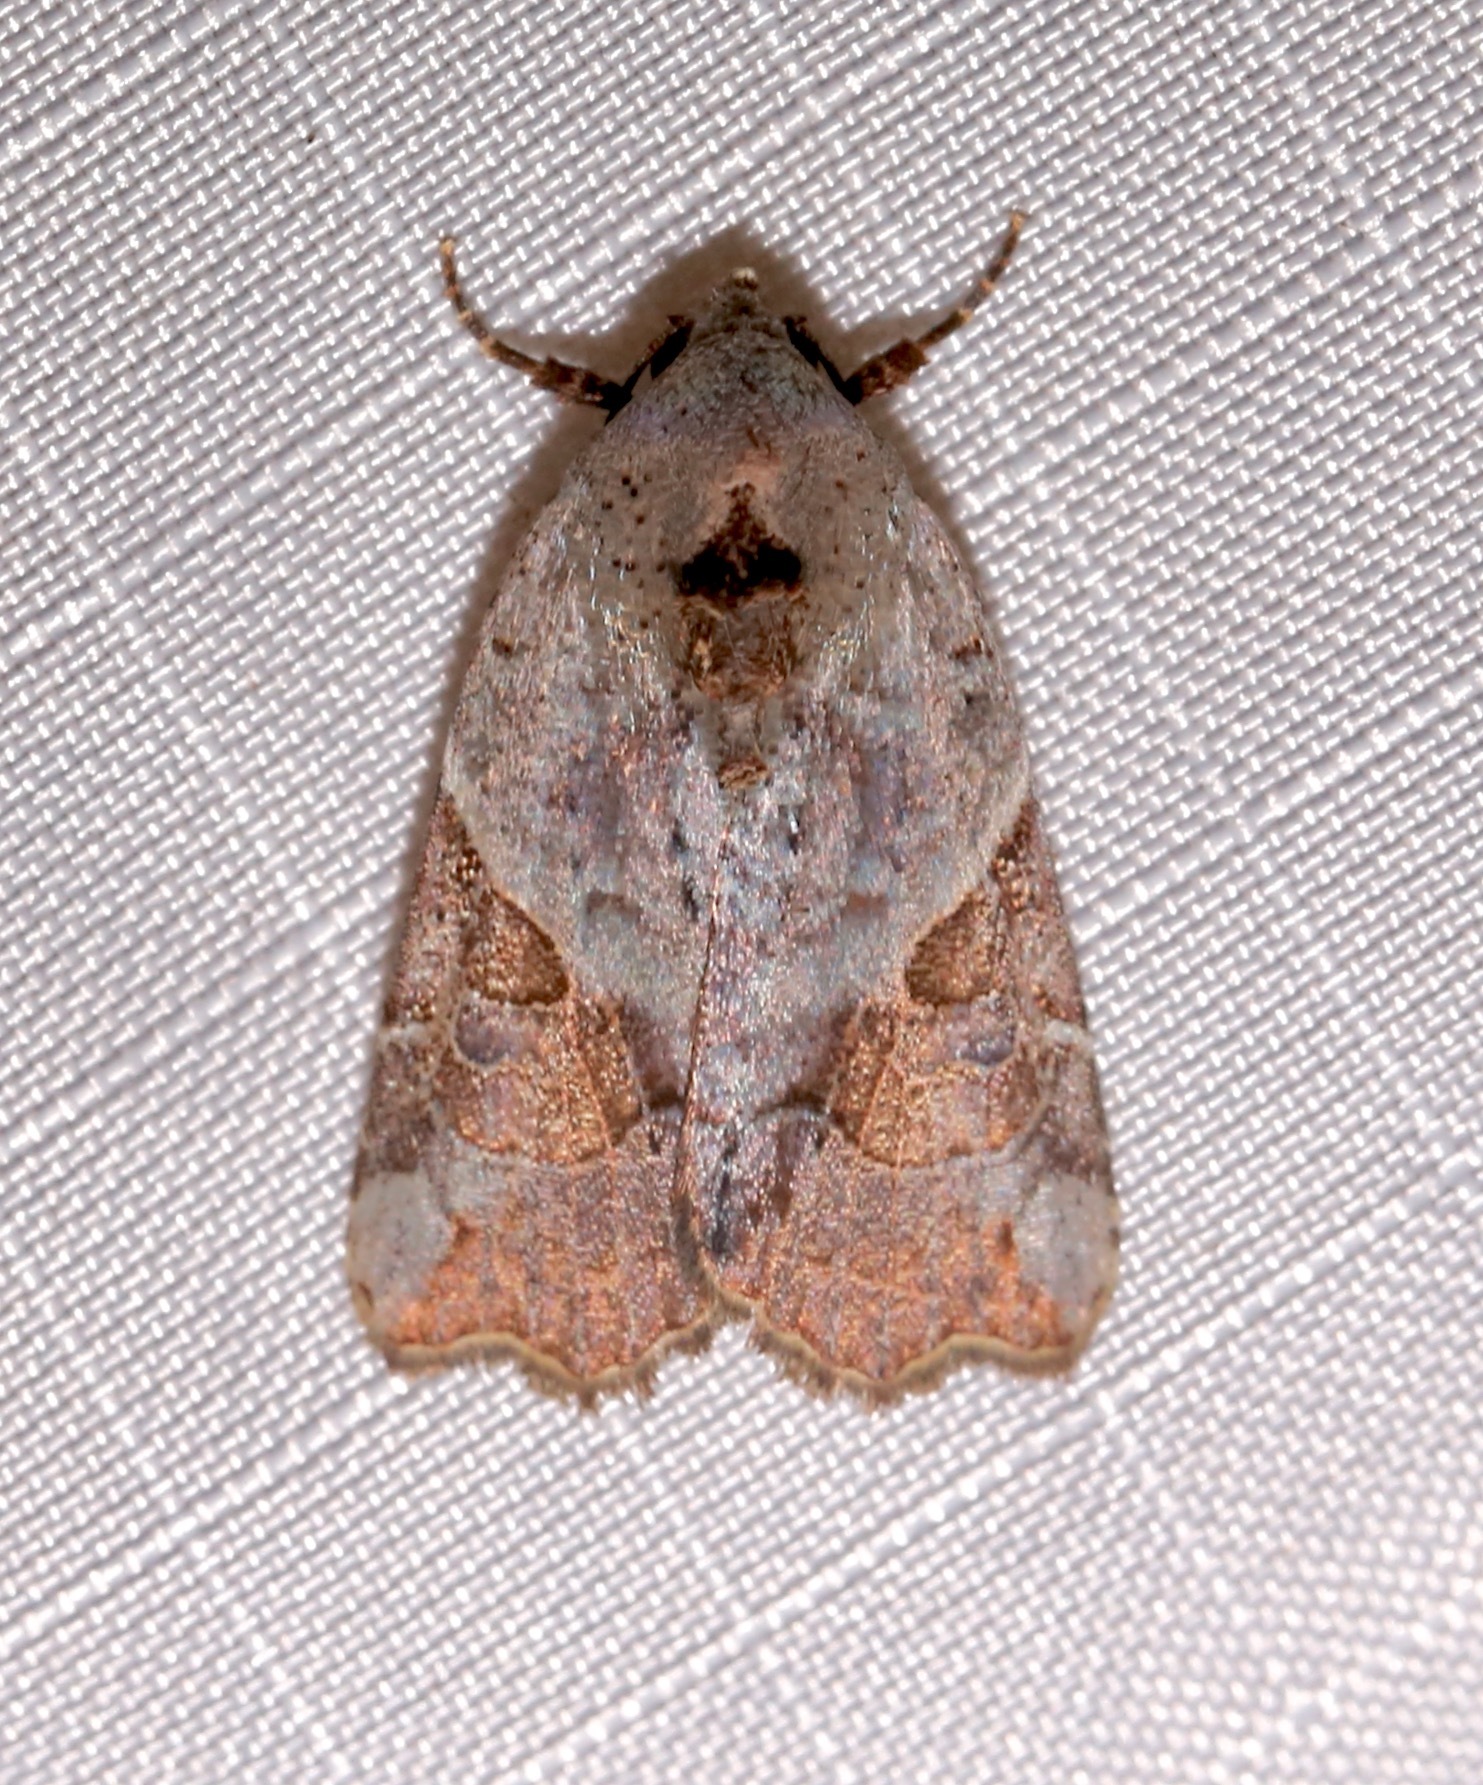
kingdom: Animalia
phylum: Arthropoda
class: Insecta
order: Lepidoptera
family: Noctuidae
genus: Gonodes
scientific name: Gonodes liquida
